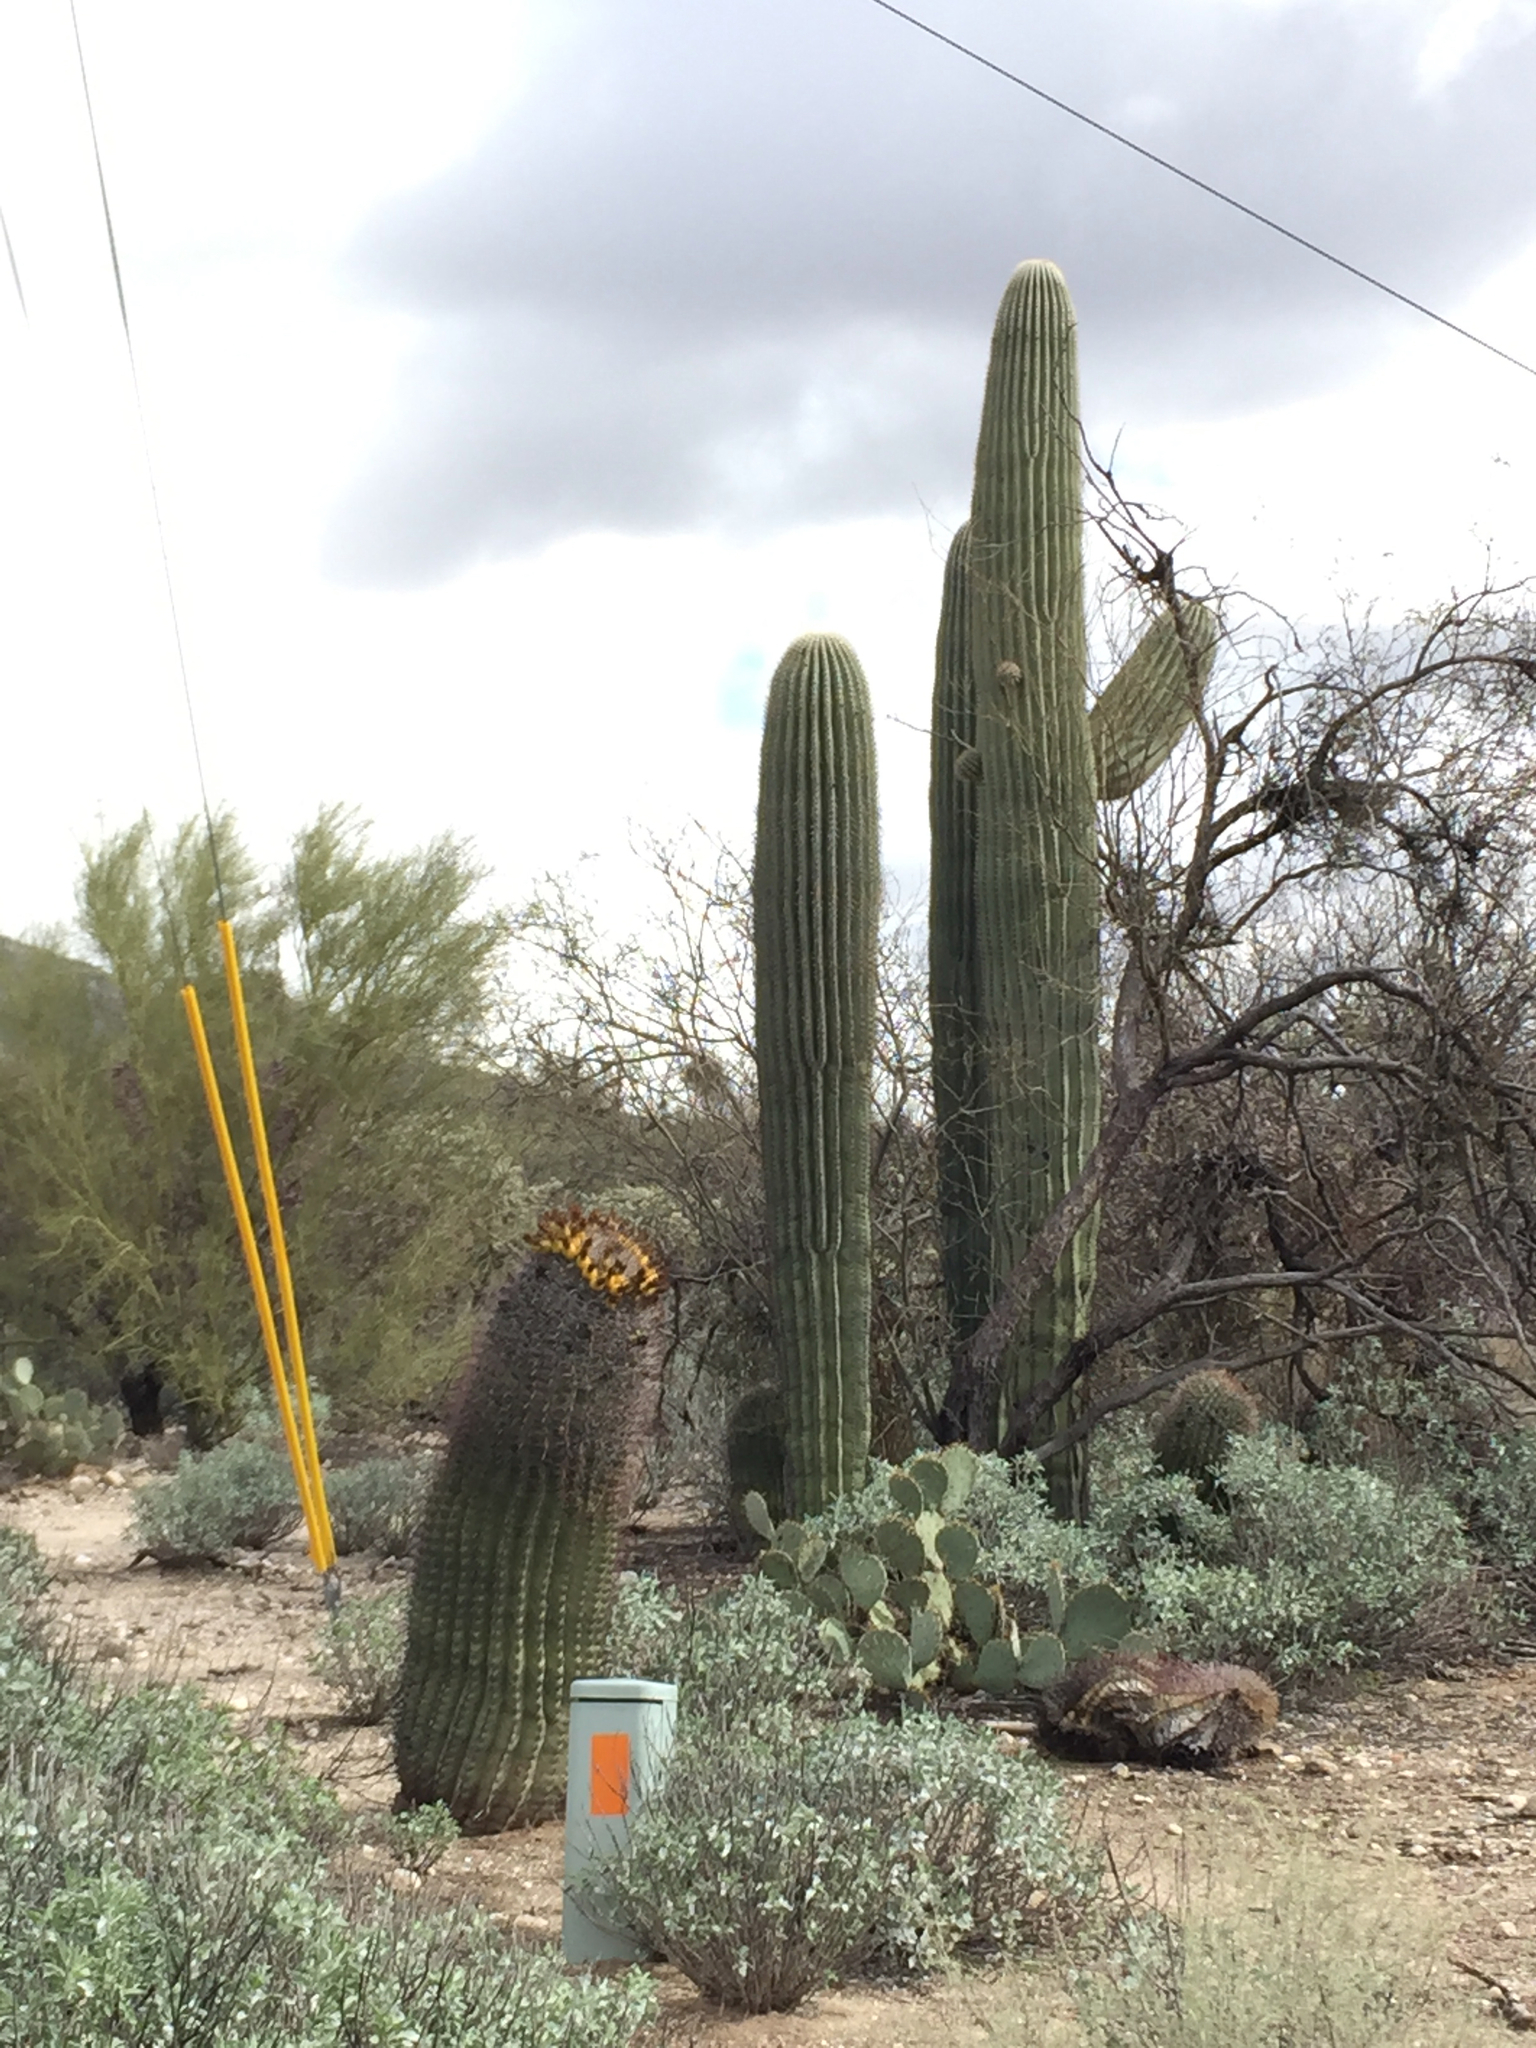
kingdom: Plantae
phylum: Tracheophyta
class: Magnoliopsida
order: Caryophyllales
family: Cactaceae
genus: Carnegiea
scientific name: Carnegiea gigantea
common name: Saguaro
